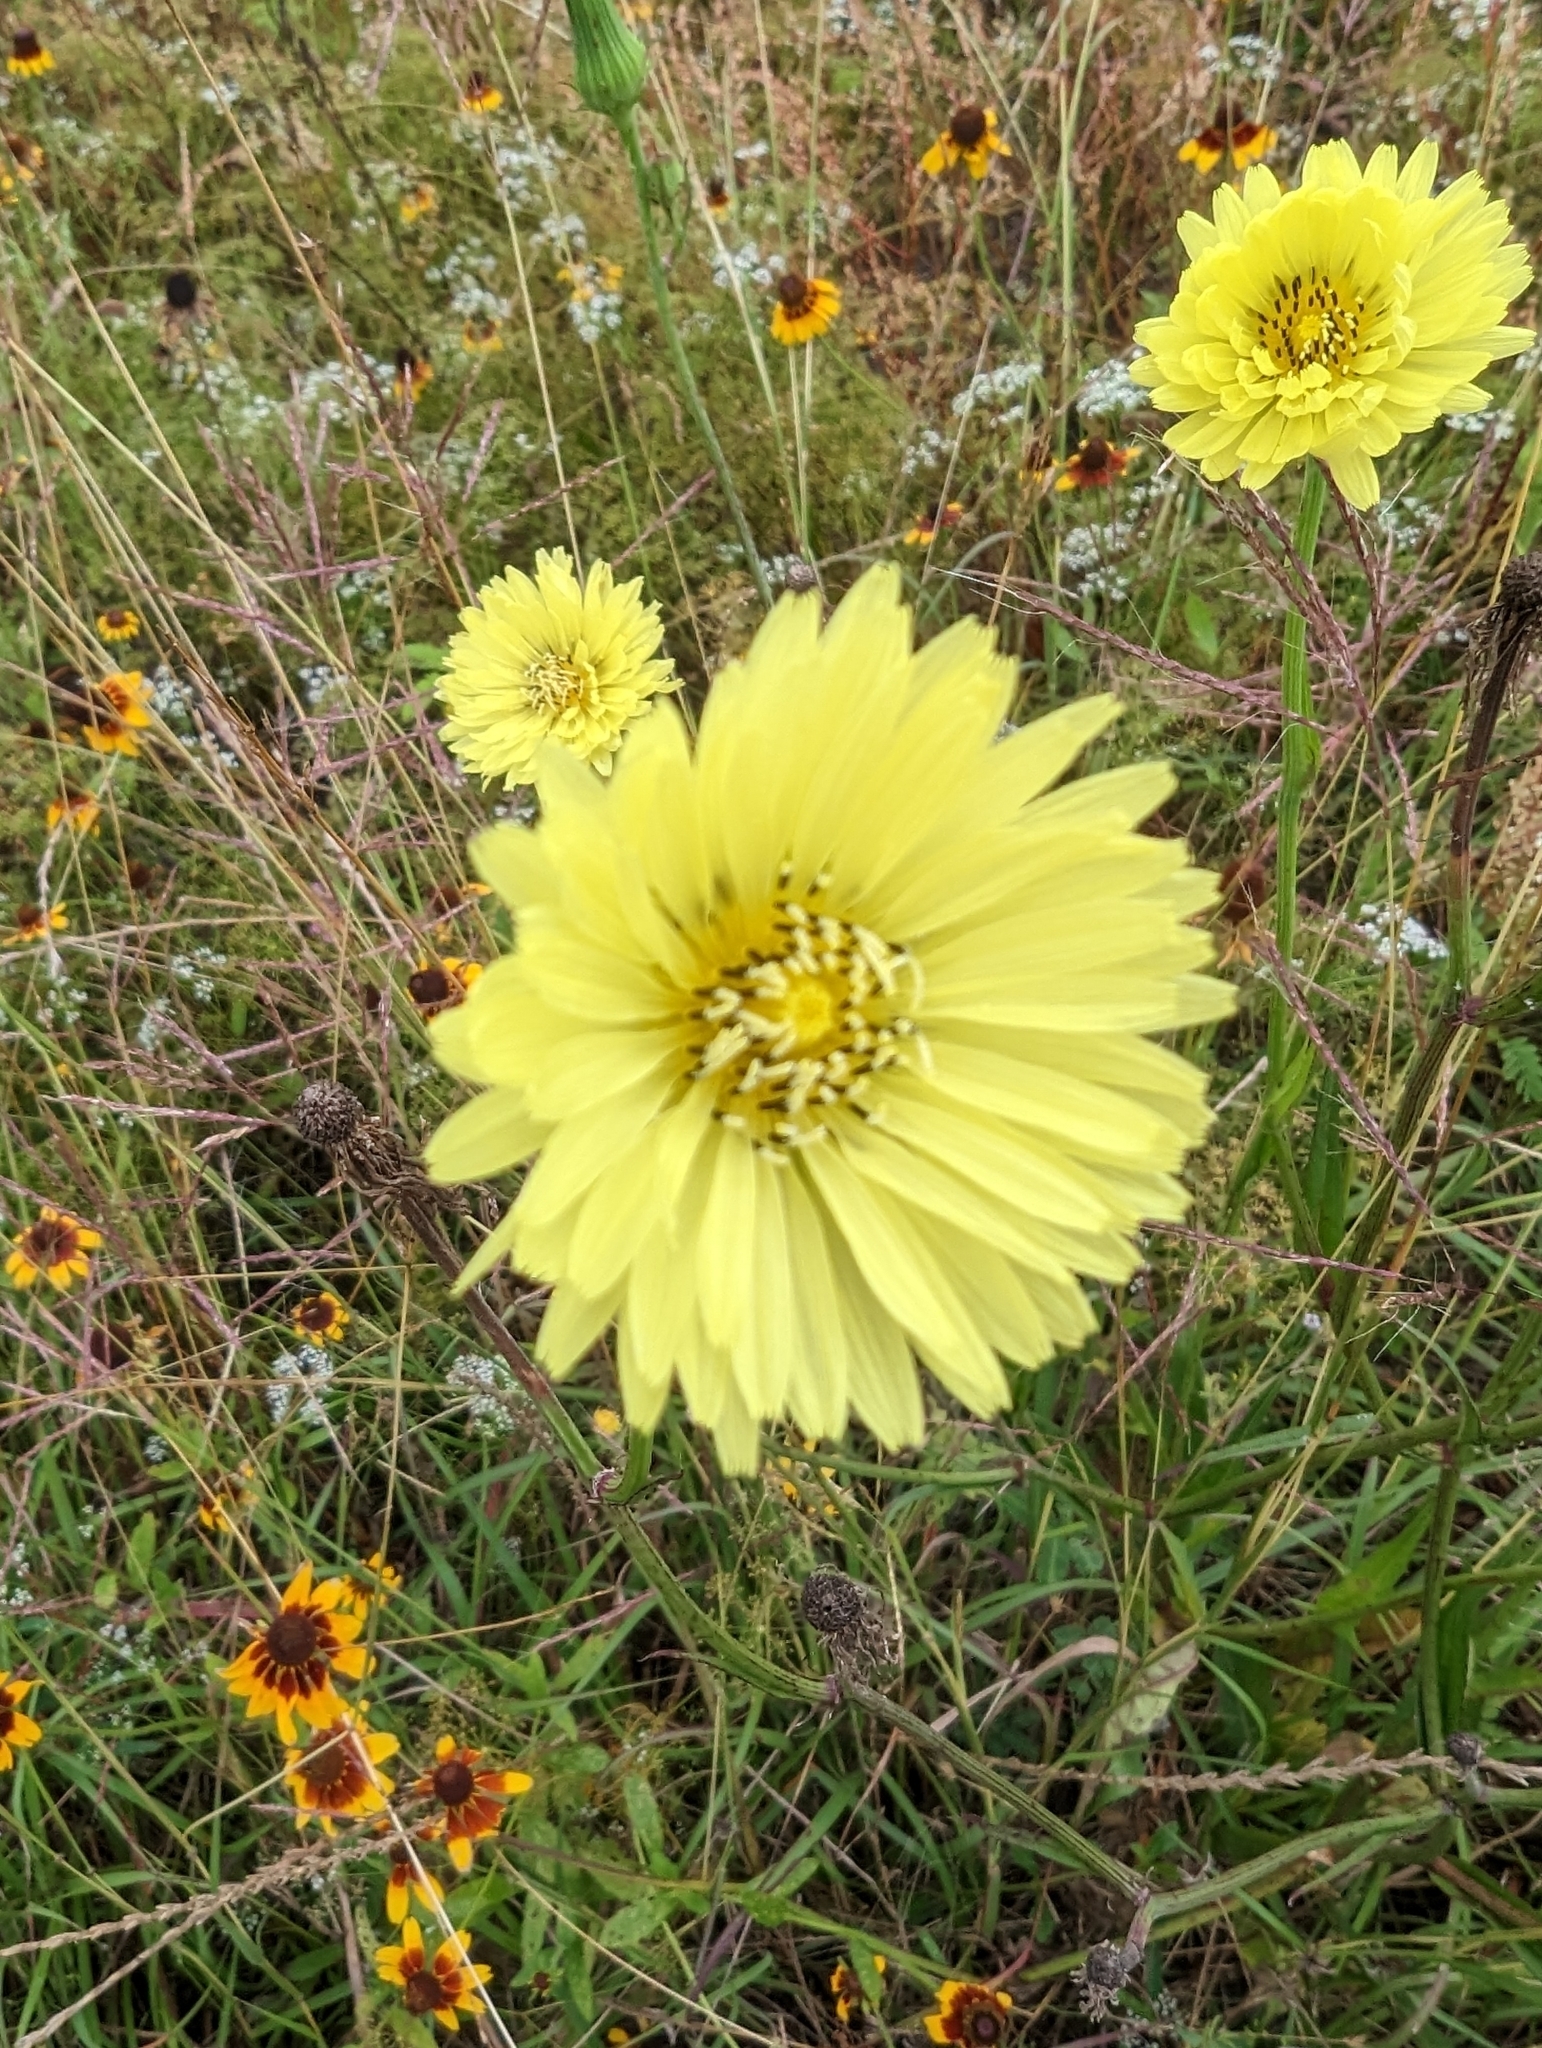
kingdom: Plantae
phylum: Tracheophyta
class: Magnoliopsida
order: Asterales
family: Asteraceae
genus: Pyrrhopappus
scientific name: Pyrrhopappus carolinianus
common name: Carolina desert-chicory
